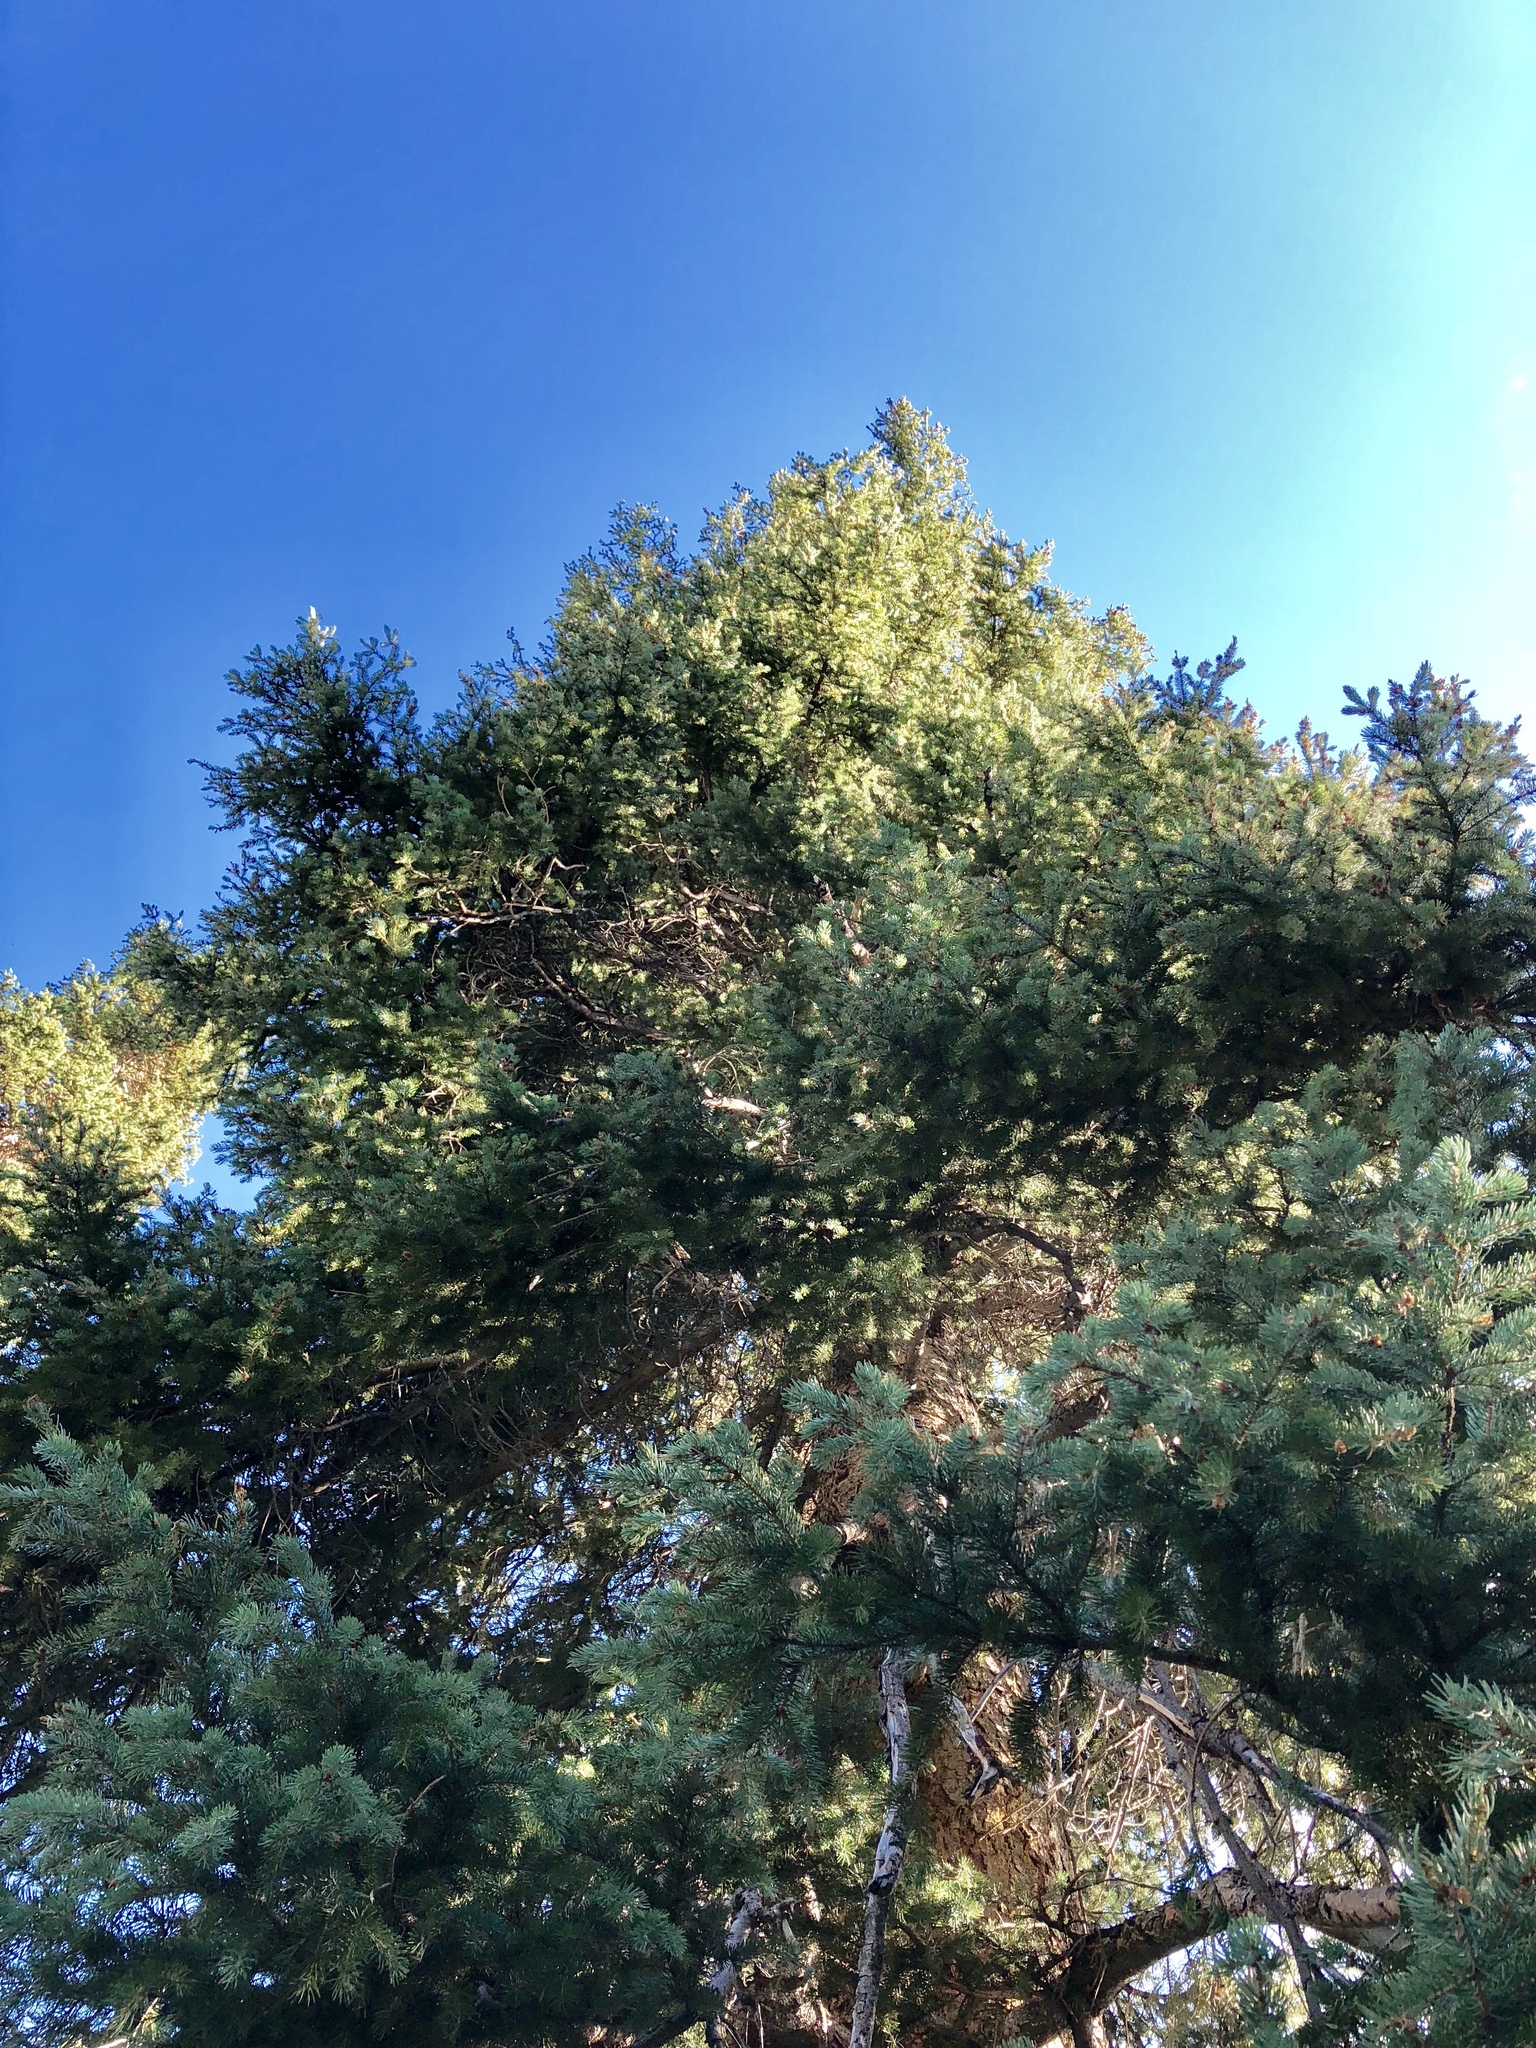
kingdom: Plantae
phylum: Tracheophyta
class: Pinopsida
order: Pinales
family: Pinaceae
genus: Picea
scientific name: Picea engelmannii
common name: Engelmann spruce
